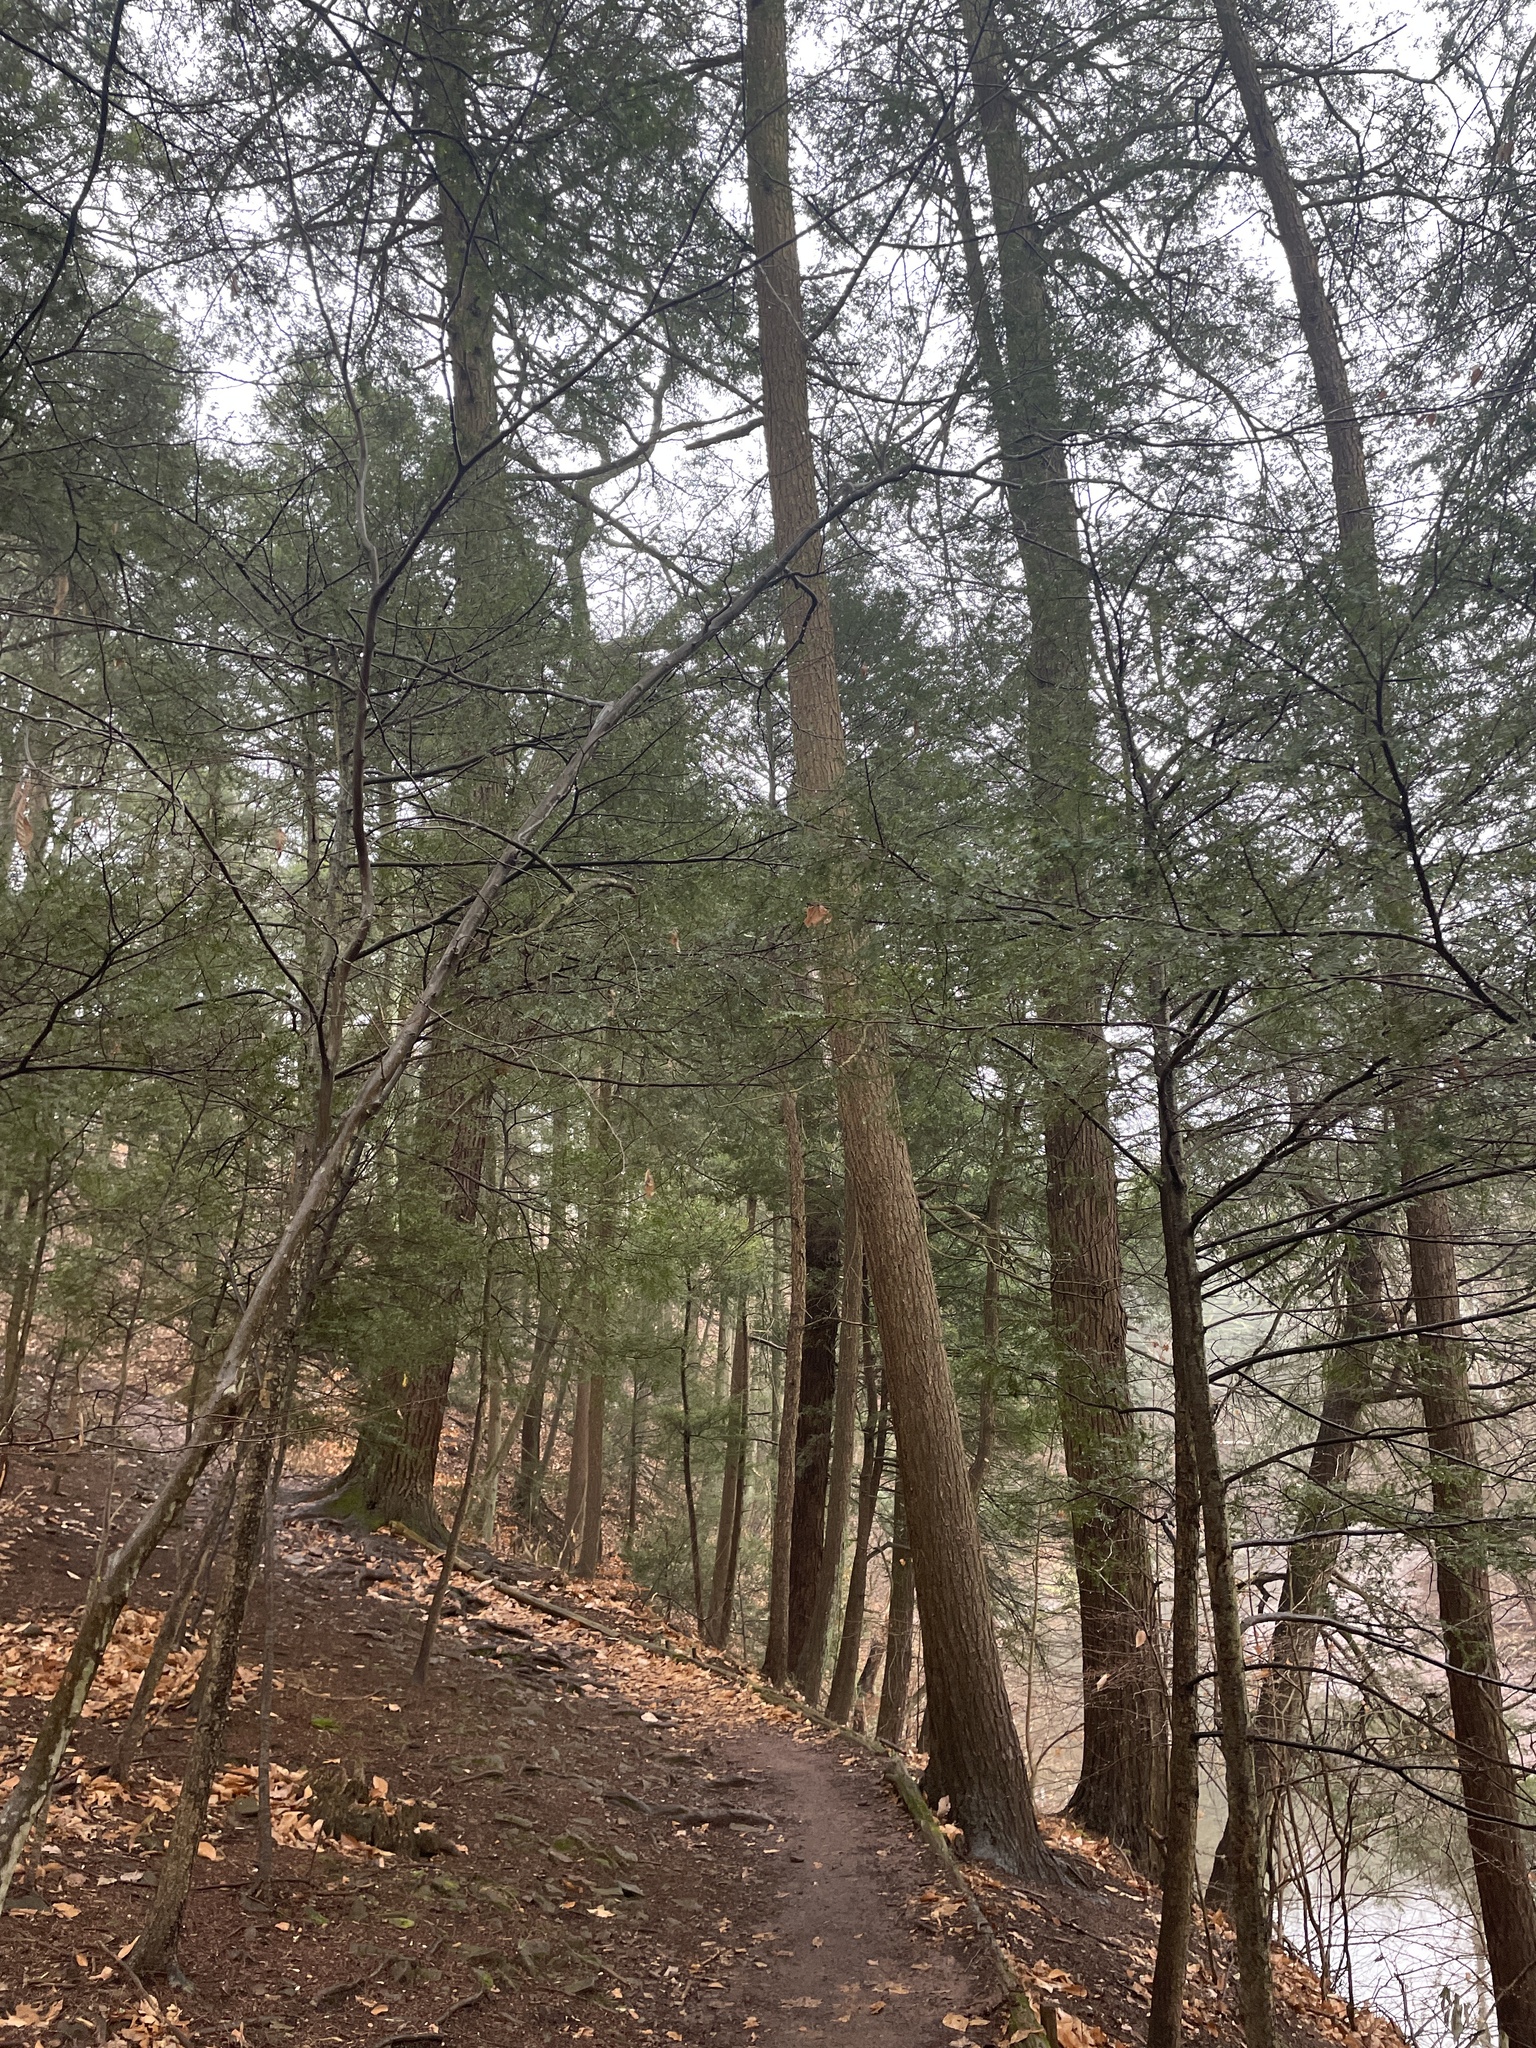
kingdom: Plantae
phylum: Tracheophyta
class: Pinopsida
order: Pinales
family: Pinaceae
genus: Tsuga
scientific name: Tsuga canadensis
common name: Eastern hemlock
